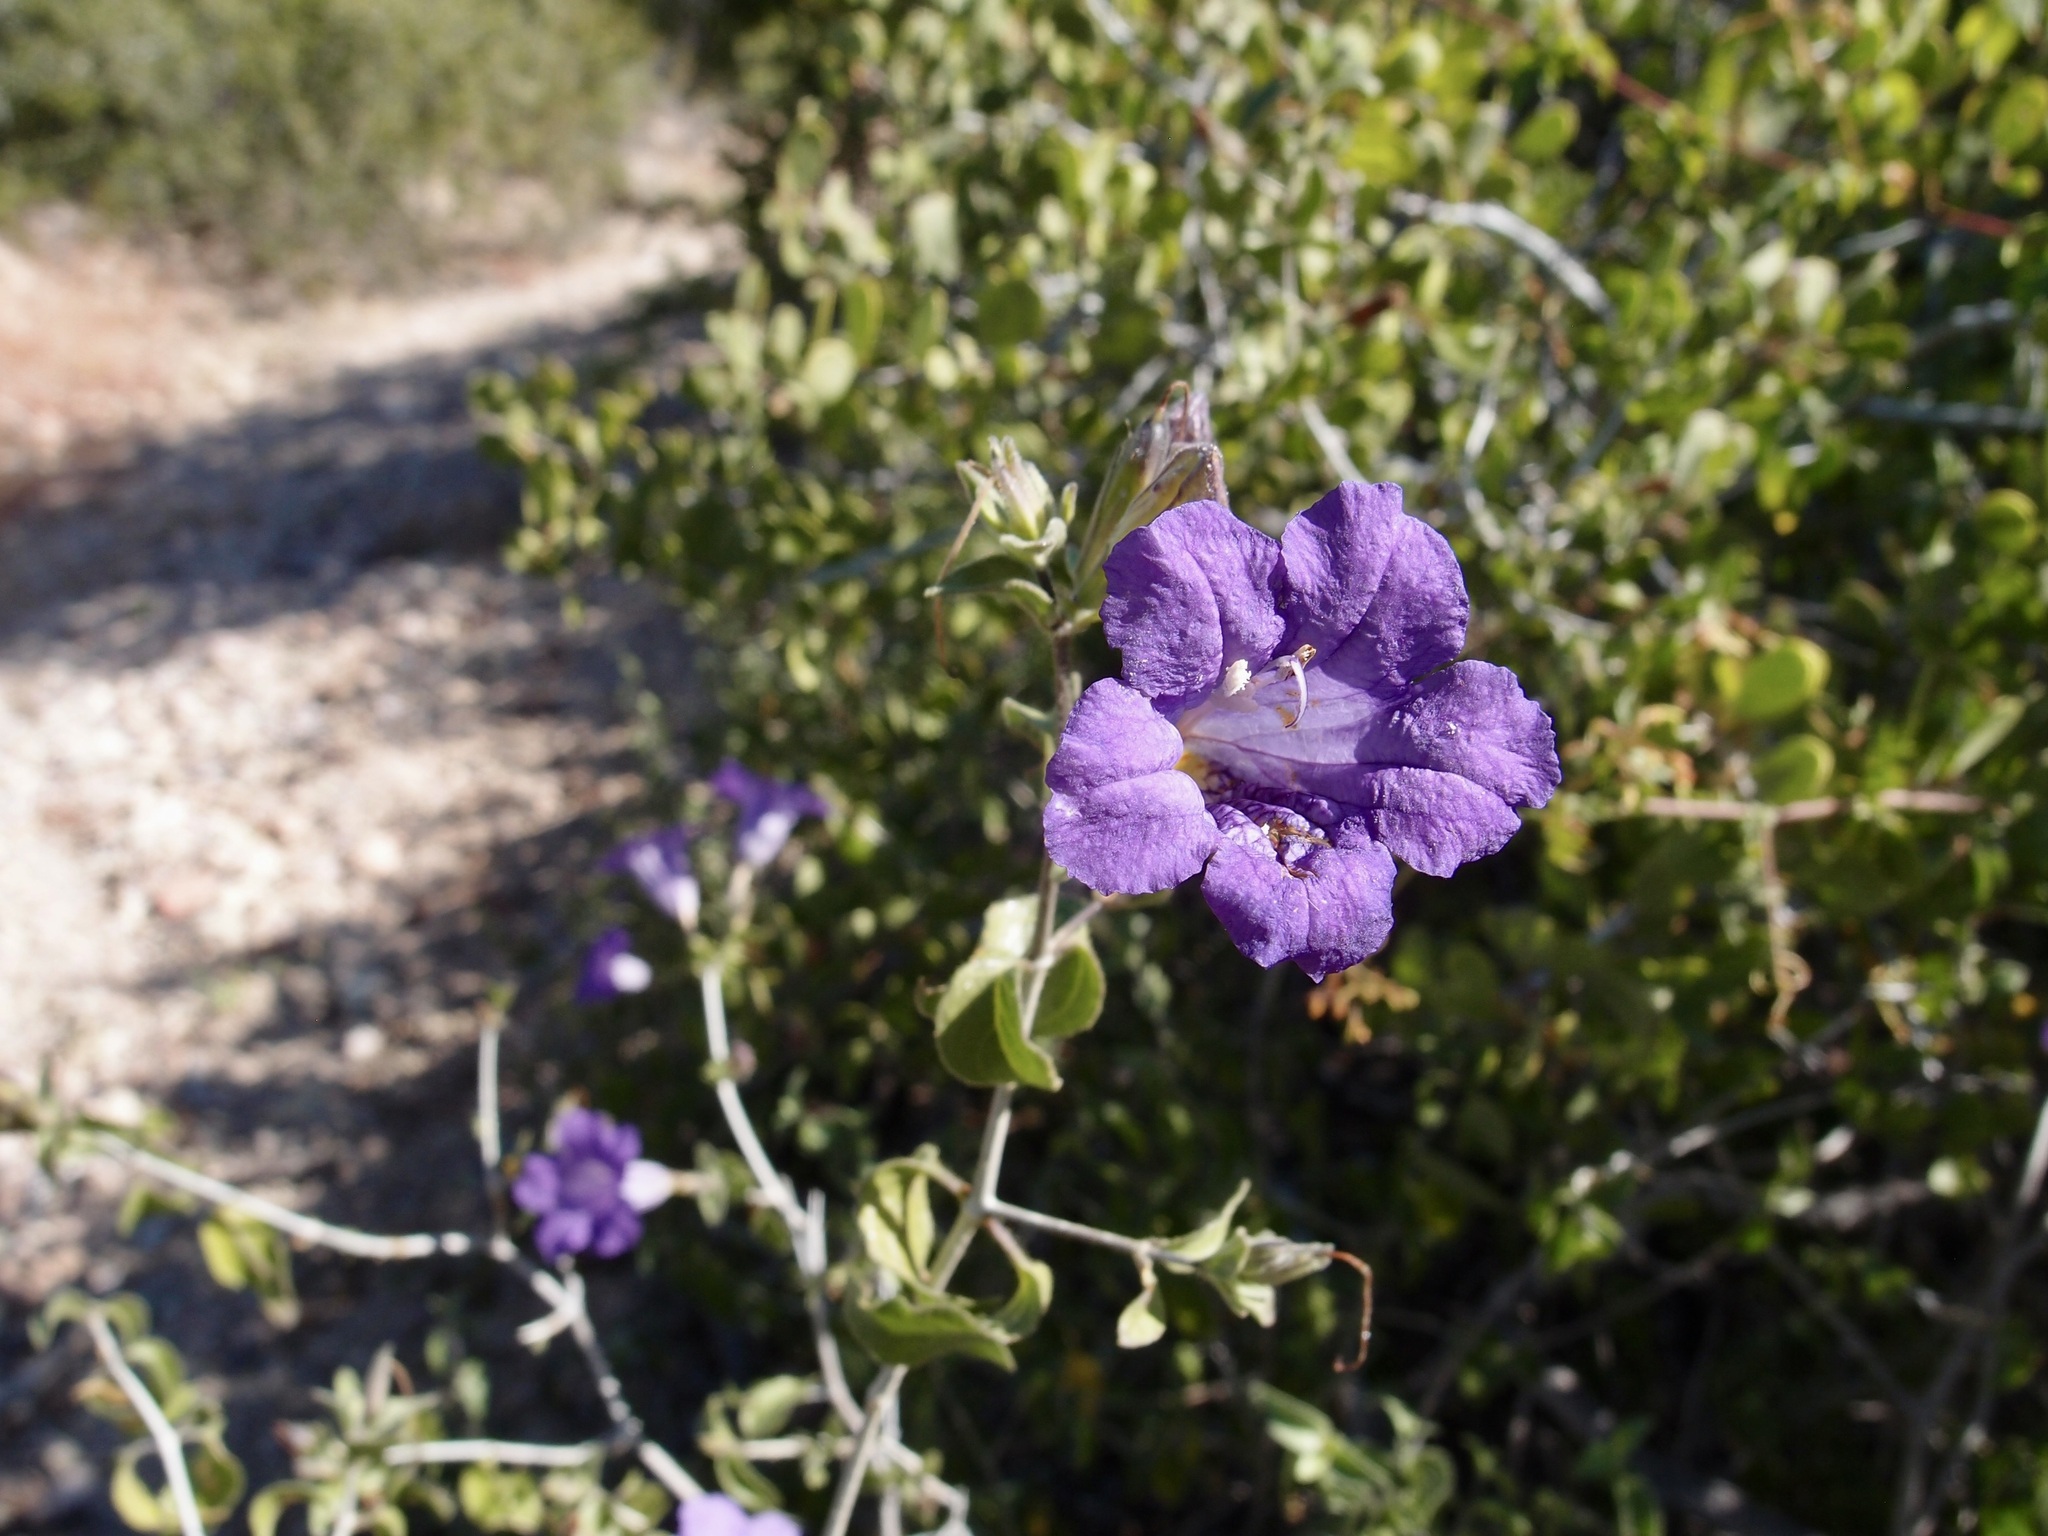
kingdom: Plantae
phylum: Tracheophyta
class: Magnoliopsida
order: Lamiales
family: Acanthaceae
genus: Ruellia
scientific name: Ruellia californica
